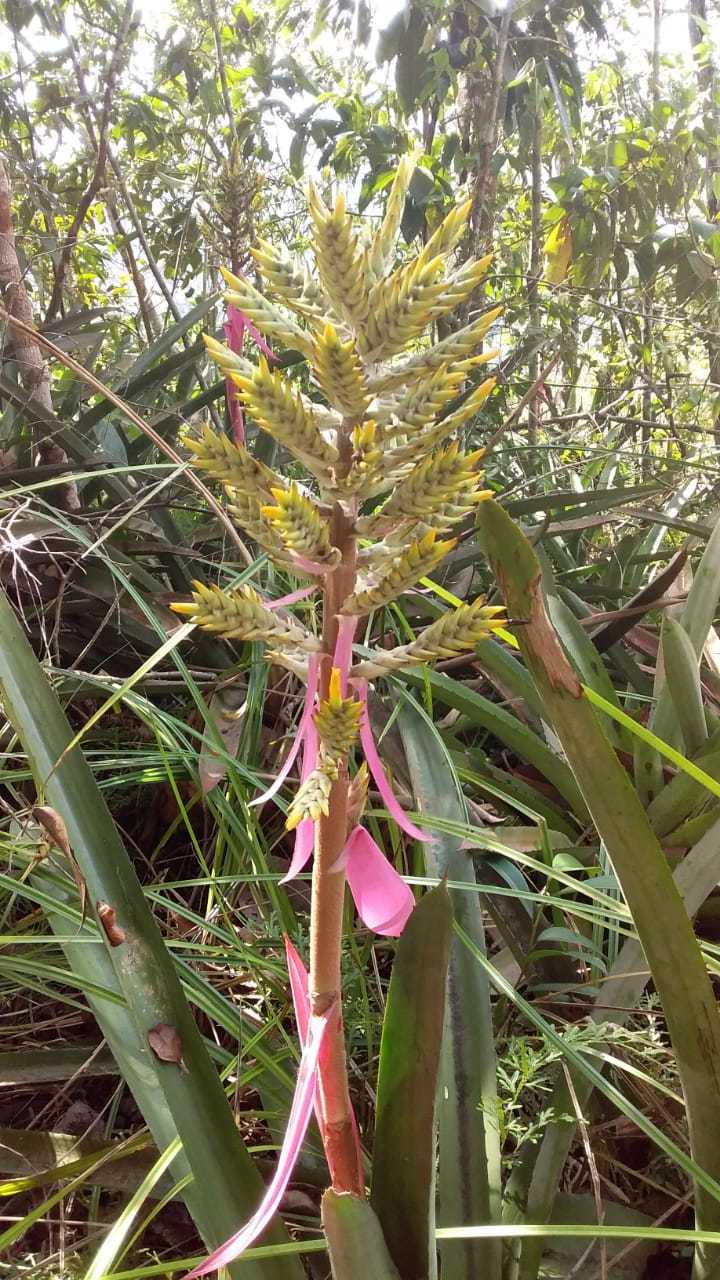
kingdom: Plantae
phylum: Tracheophyta
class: Liliopsida
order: Poales
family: Bromeliaceae
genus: Aechmea
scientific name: Aechmea stenosepala
